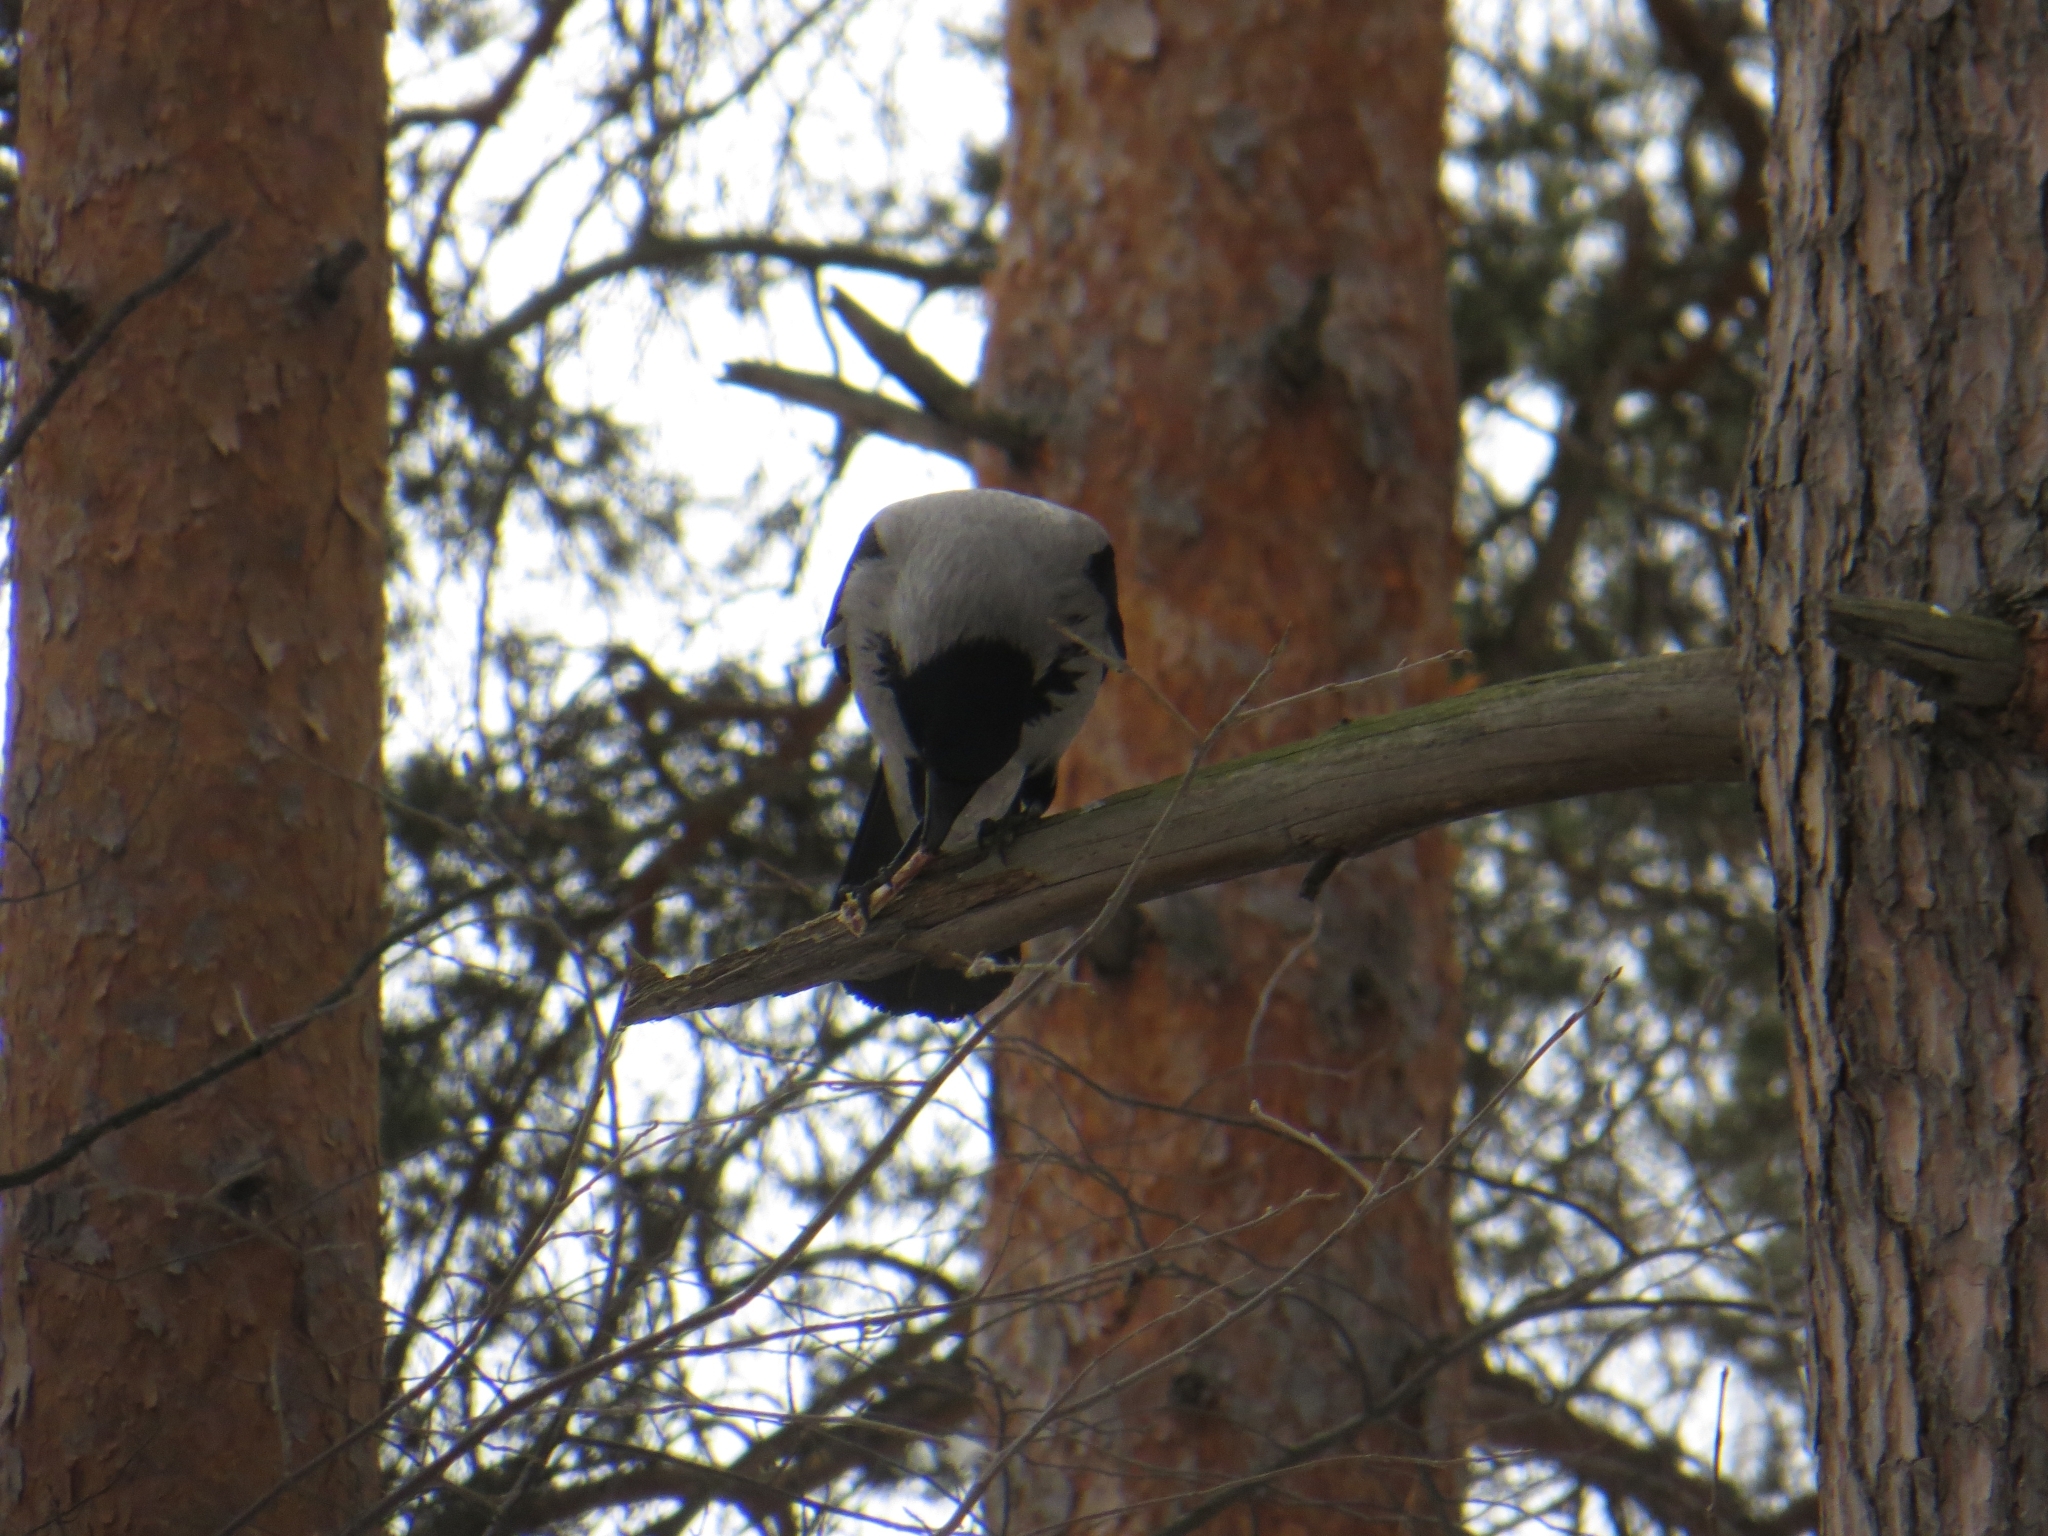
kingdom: Animalia
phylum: Chordata
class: Aves
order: Passeriformes
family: Corvidae
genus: Corvus
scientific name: Corvus cornix
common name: Hooded crow
